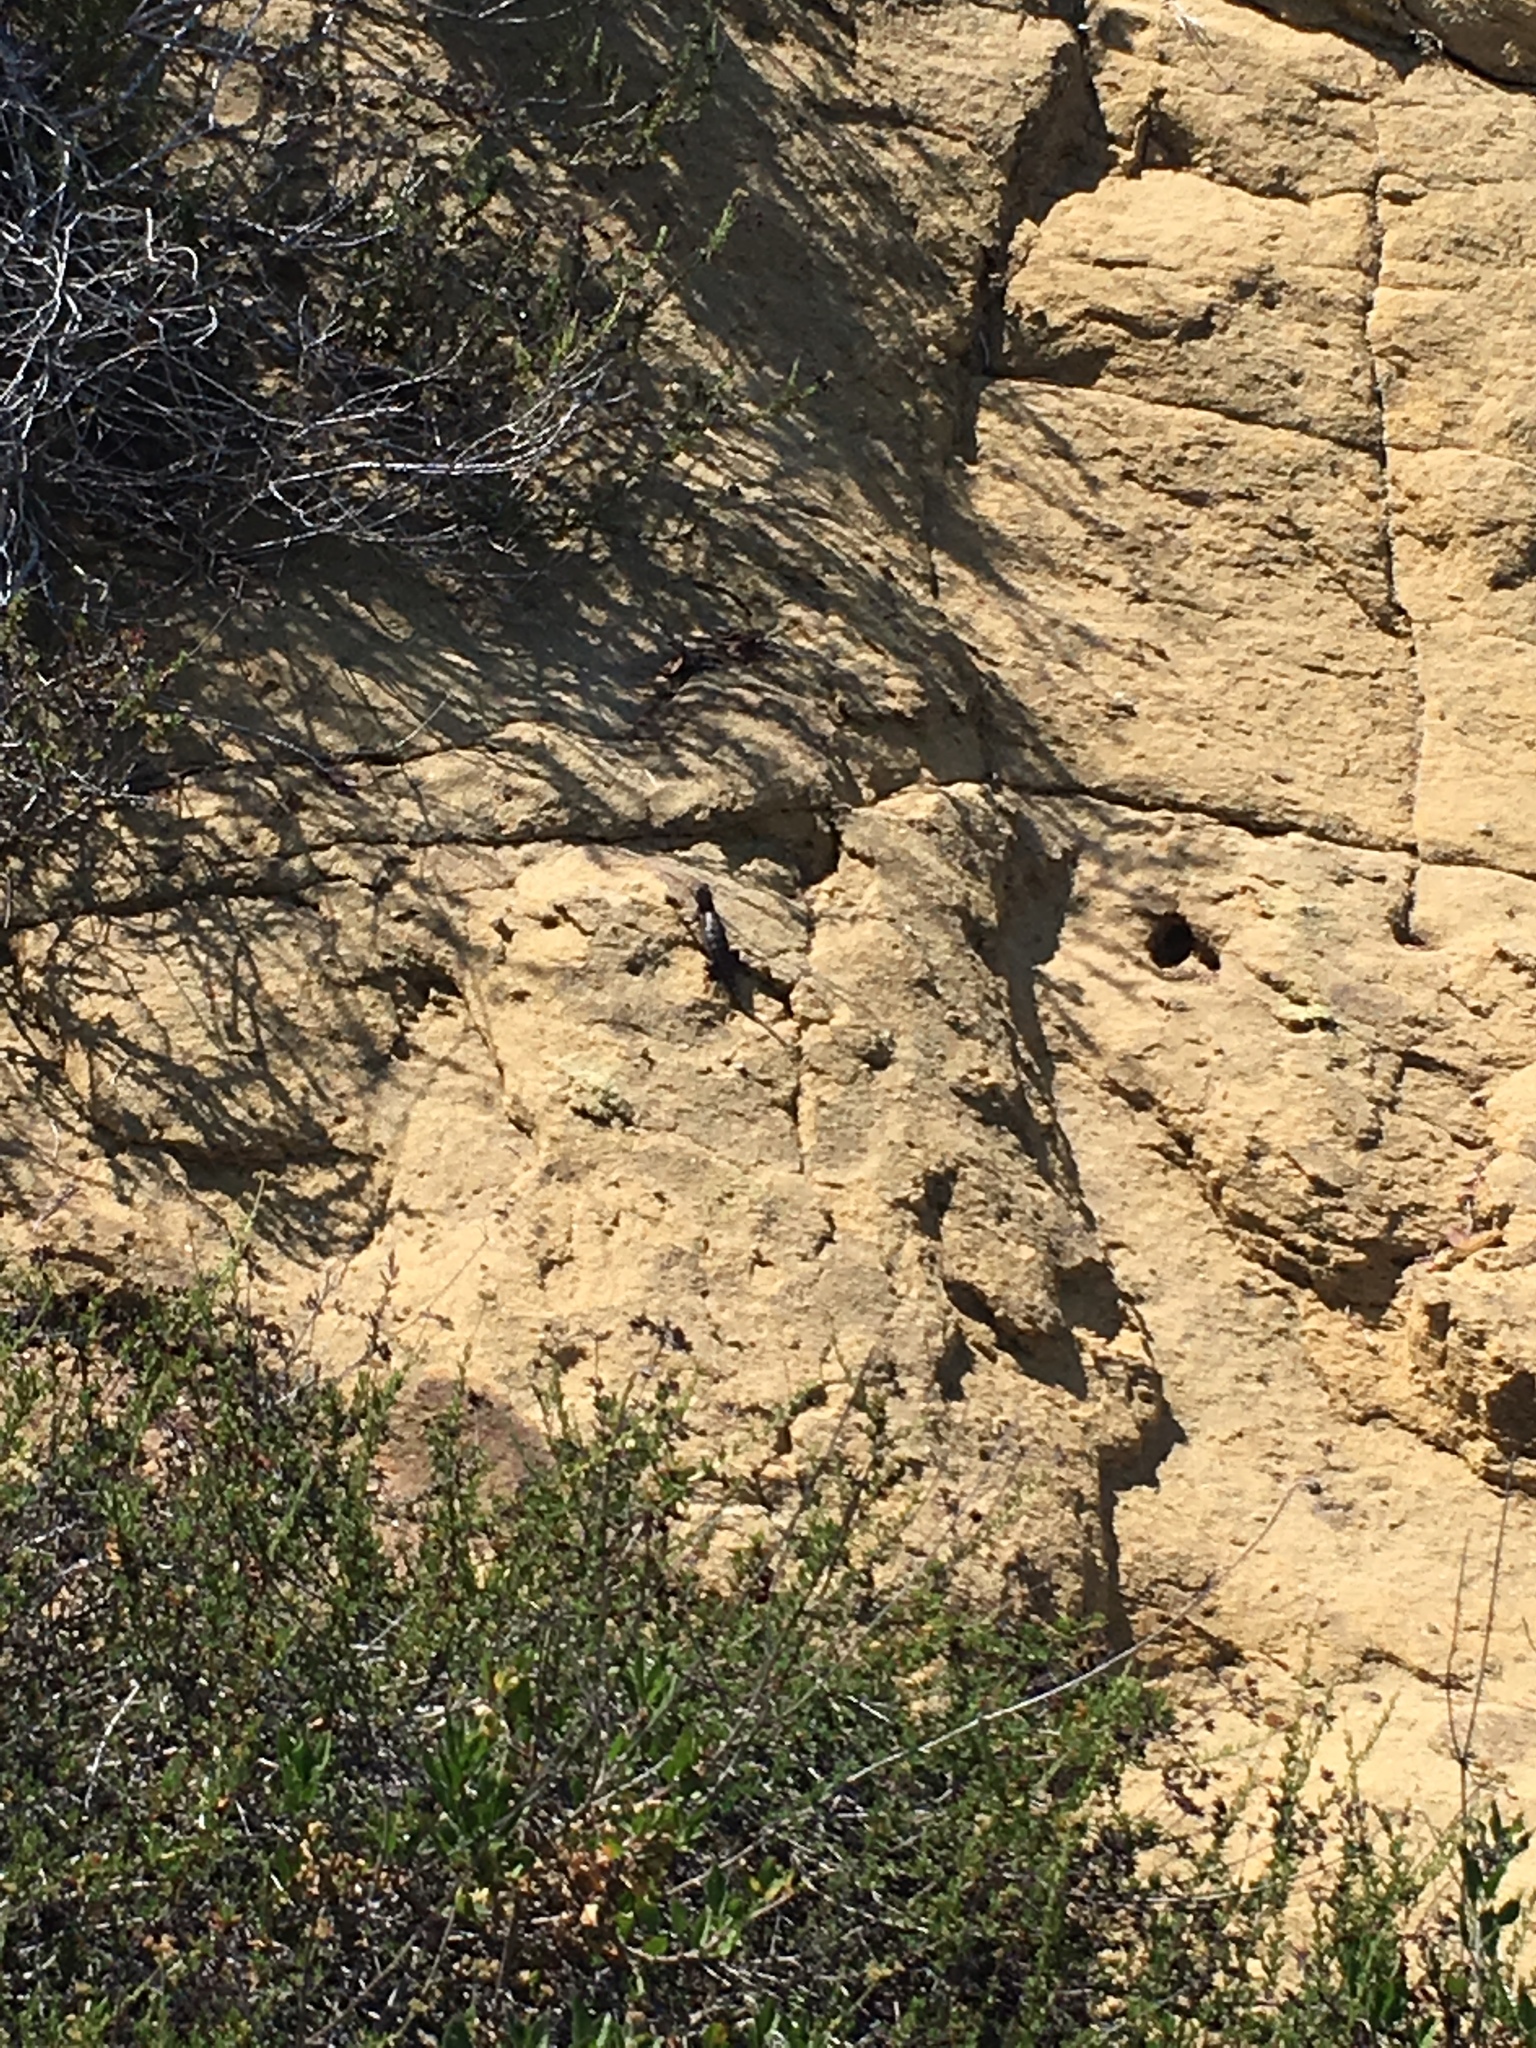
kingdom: Animalia
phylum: Chordata
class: Squamata
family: Phrynosomatidae
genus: Sceloporus
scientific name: Sceloporus occidentalis
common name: Western fence lizard
